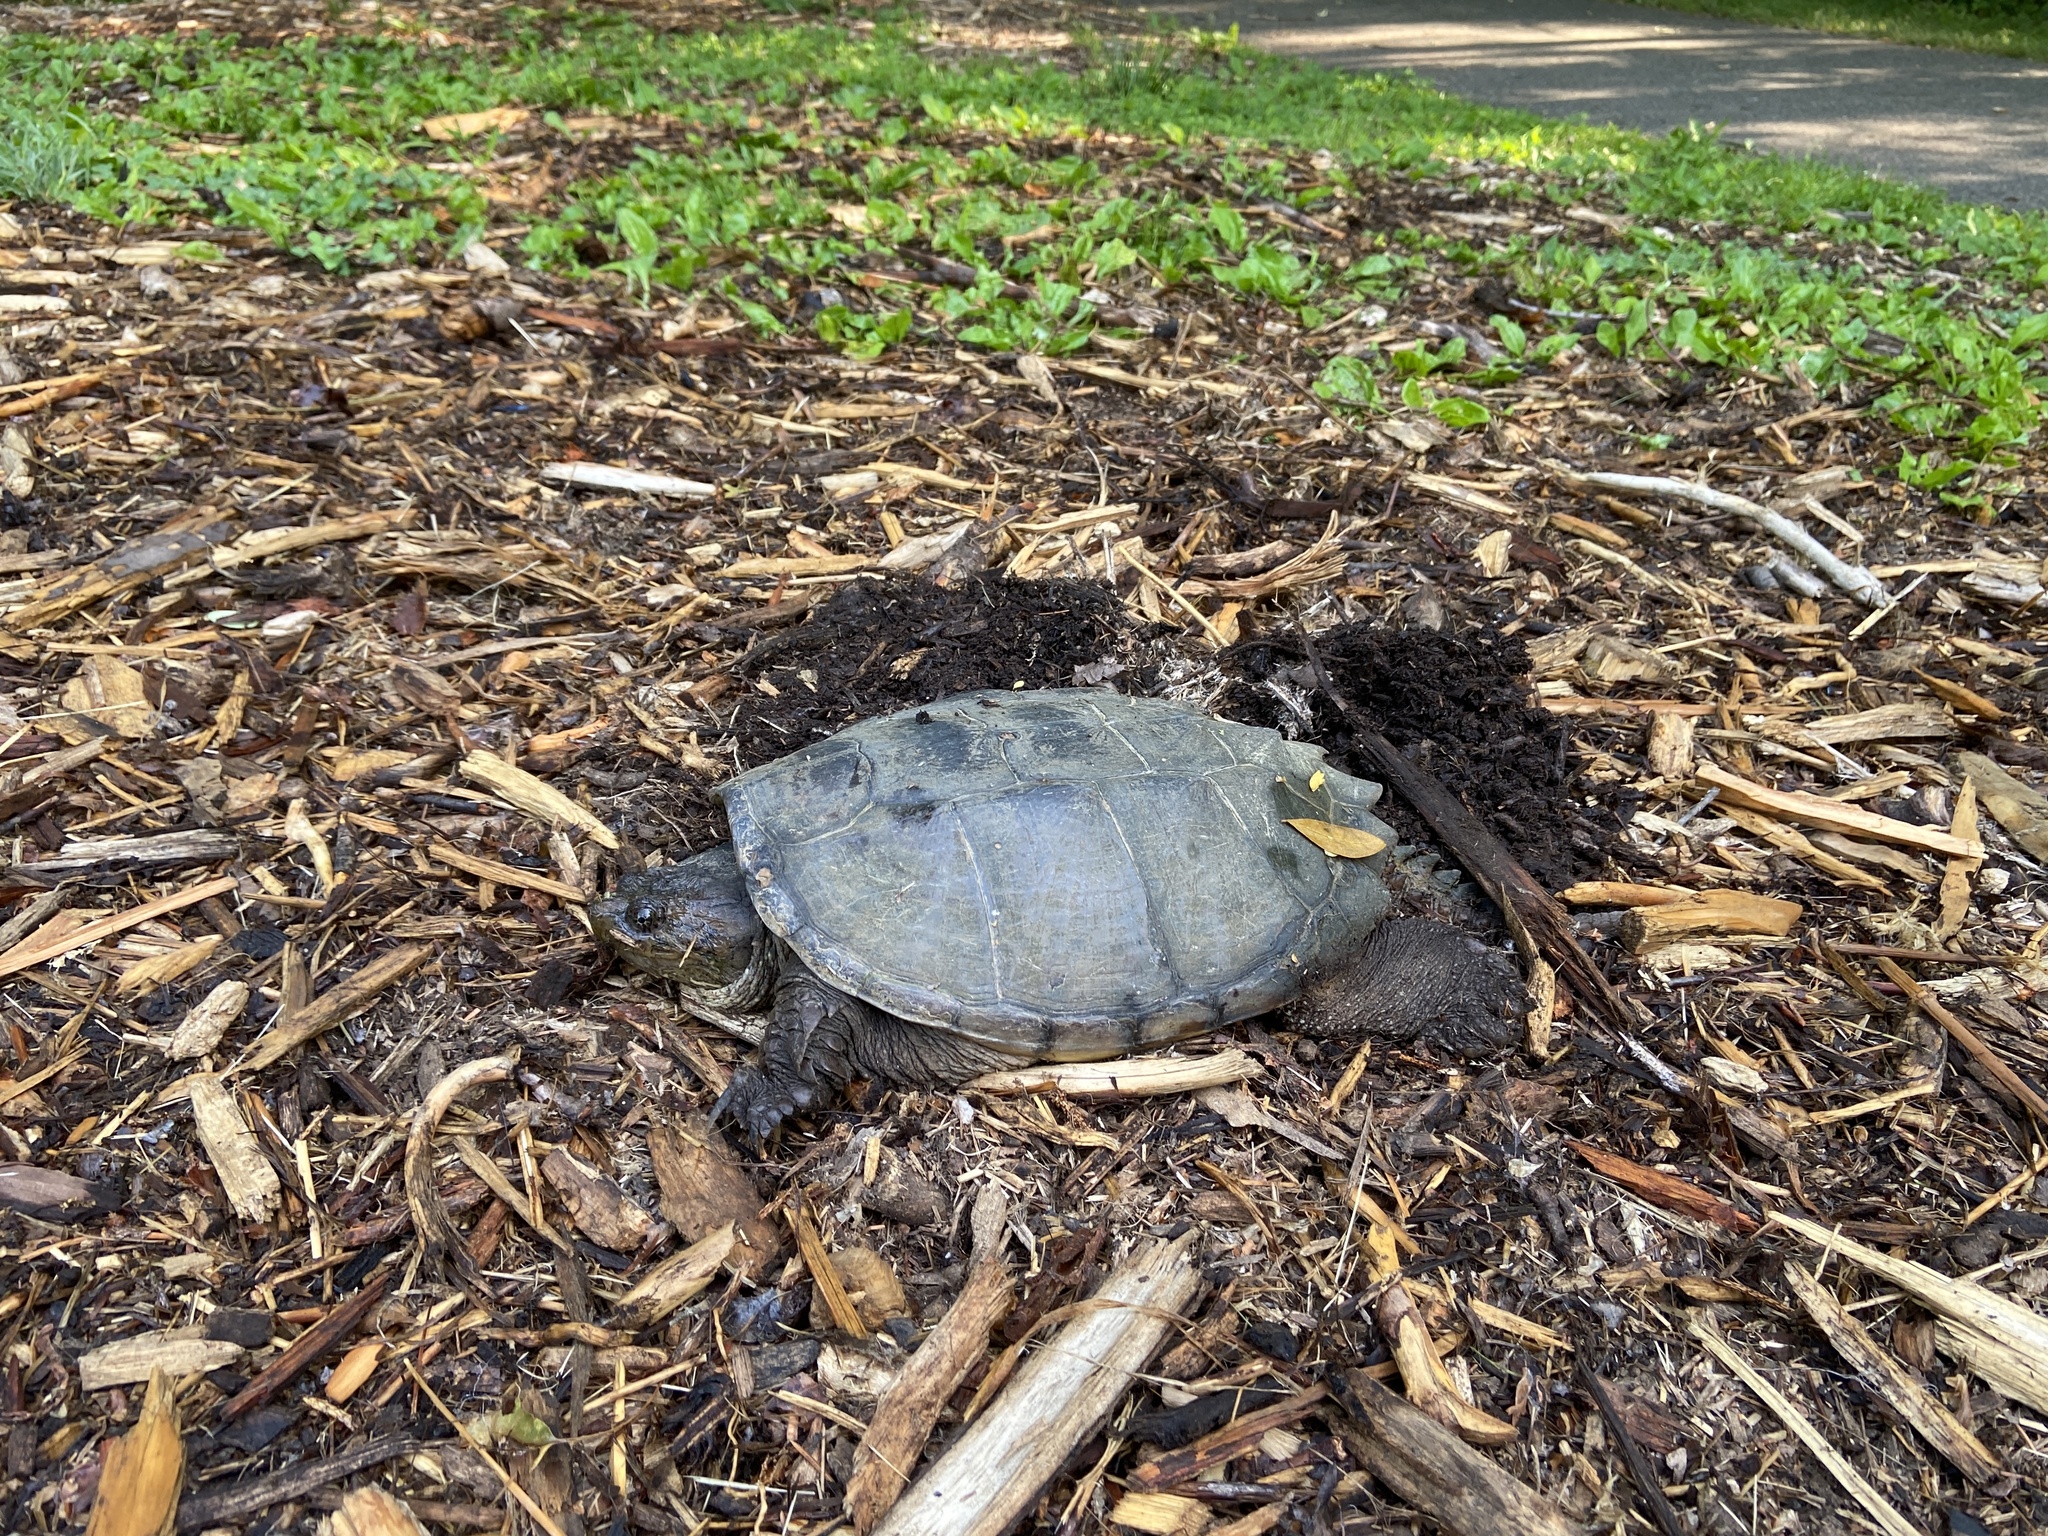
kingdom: Animalia
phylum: Chordata
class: Testudines
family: Chelydridae
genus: Chelydra
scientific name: Chelydra serpentina
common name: Common snapping turtle
